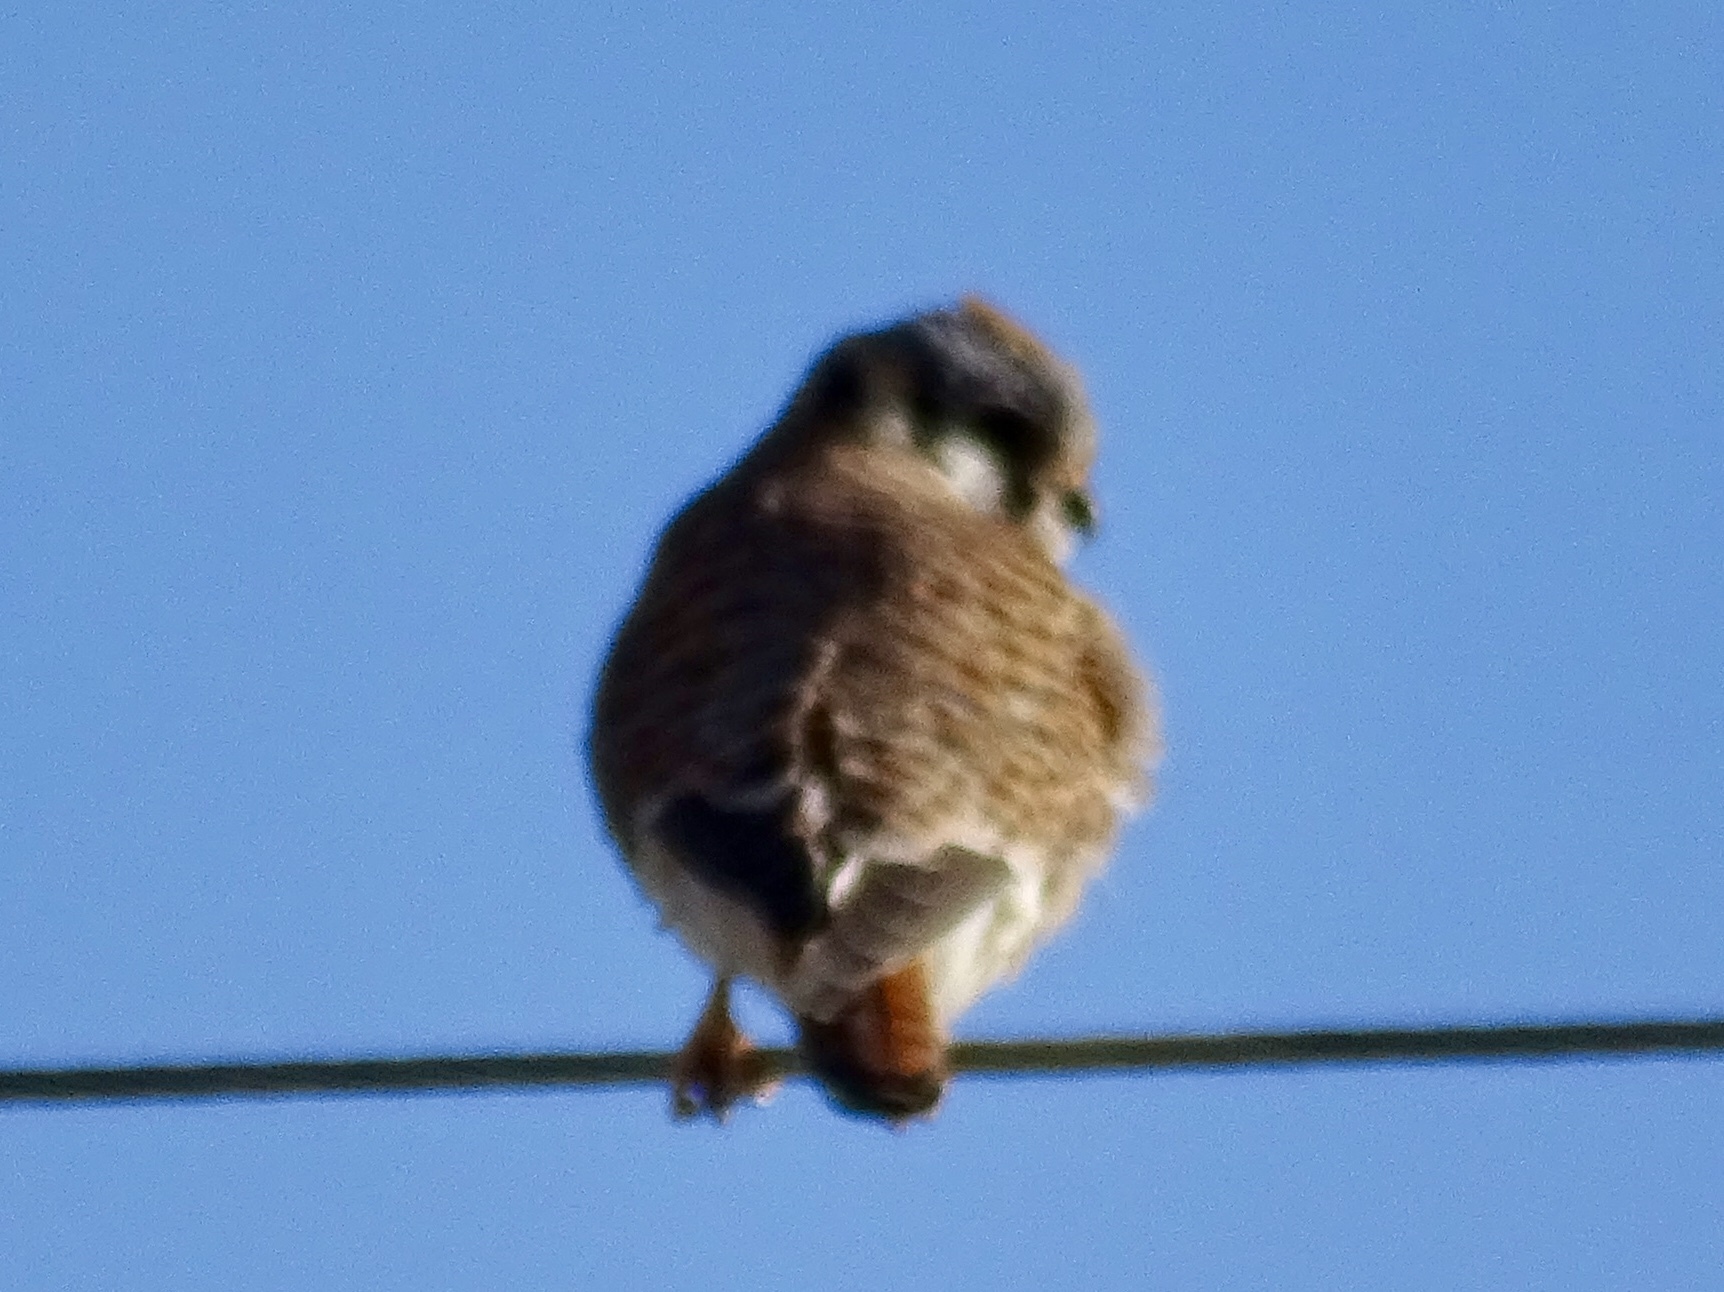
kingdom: Animalia
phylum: Chordata
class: Aves
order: Falconiformes
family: Falconidae
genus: Falco
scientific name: Falco sparverius
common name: American kestrel
